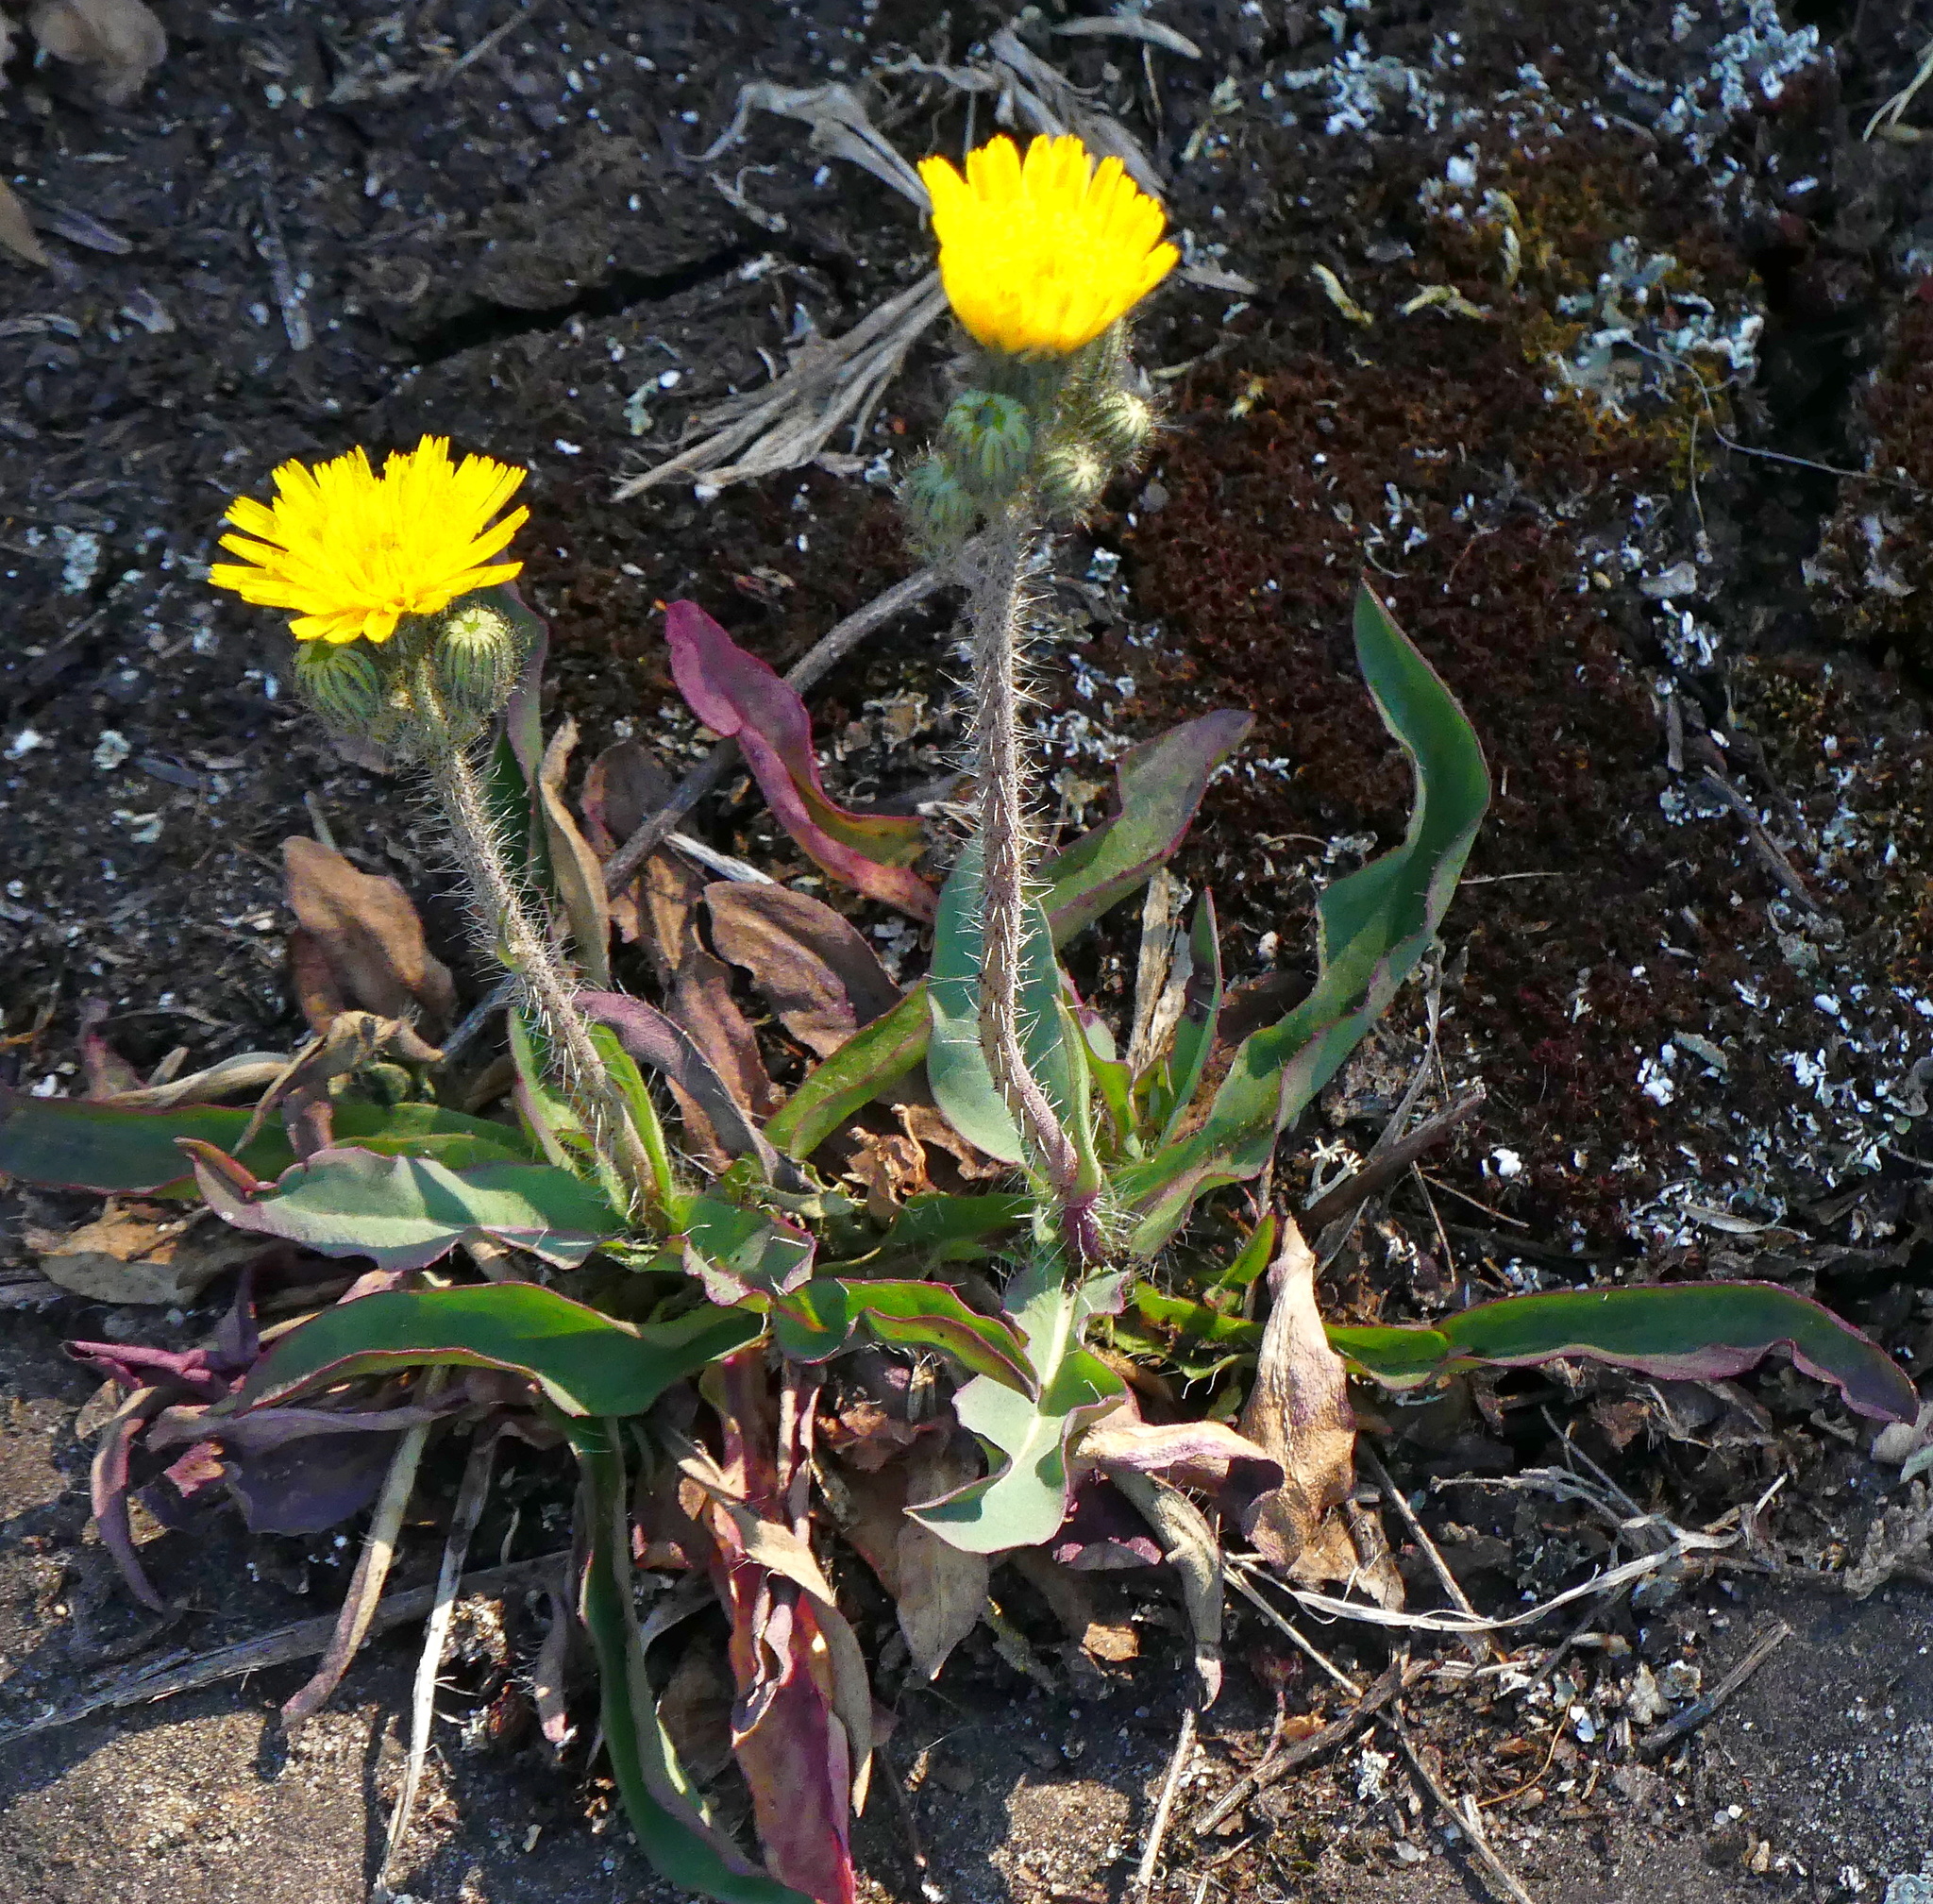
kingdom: Plantae
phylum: Tracheophyta
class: Magnoliopsida
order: Asterales
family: Asteraceae
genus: Pilosella
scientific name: Pilosella piloselloides
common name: Glaucous king-devil
